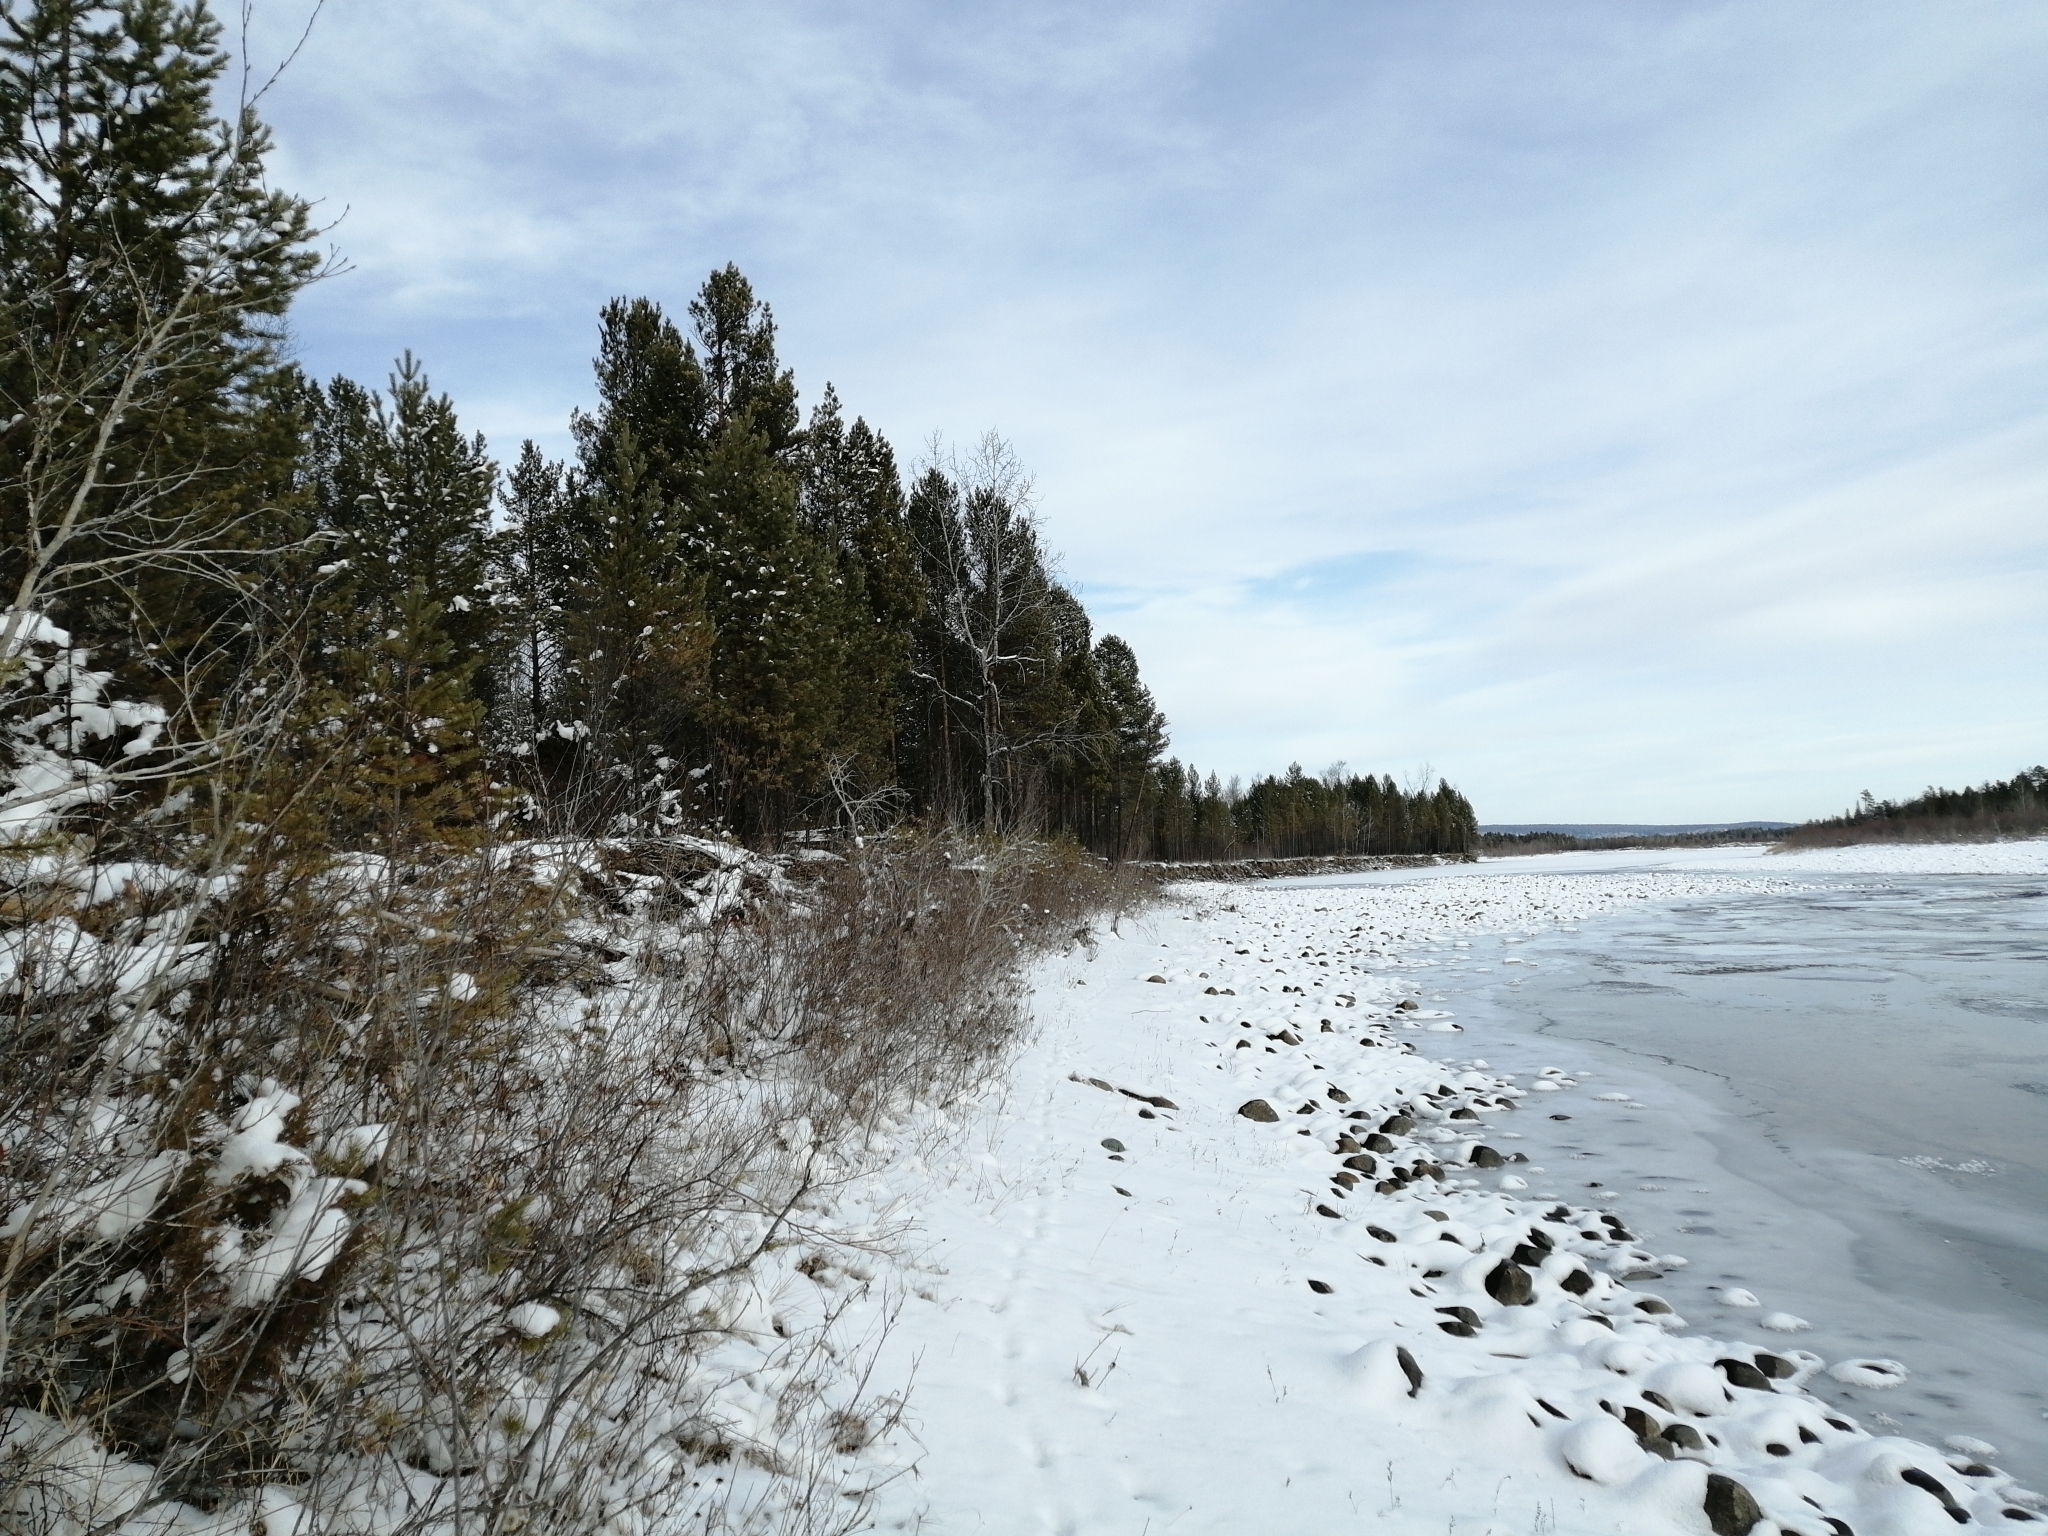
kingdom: Plantae
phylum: Tracheophyta
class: Pinopsida
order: Pinales
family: Pinaceae
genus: Pinus
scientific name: Pinus sylvestris
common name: Scots pine
